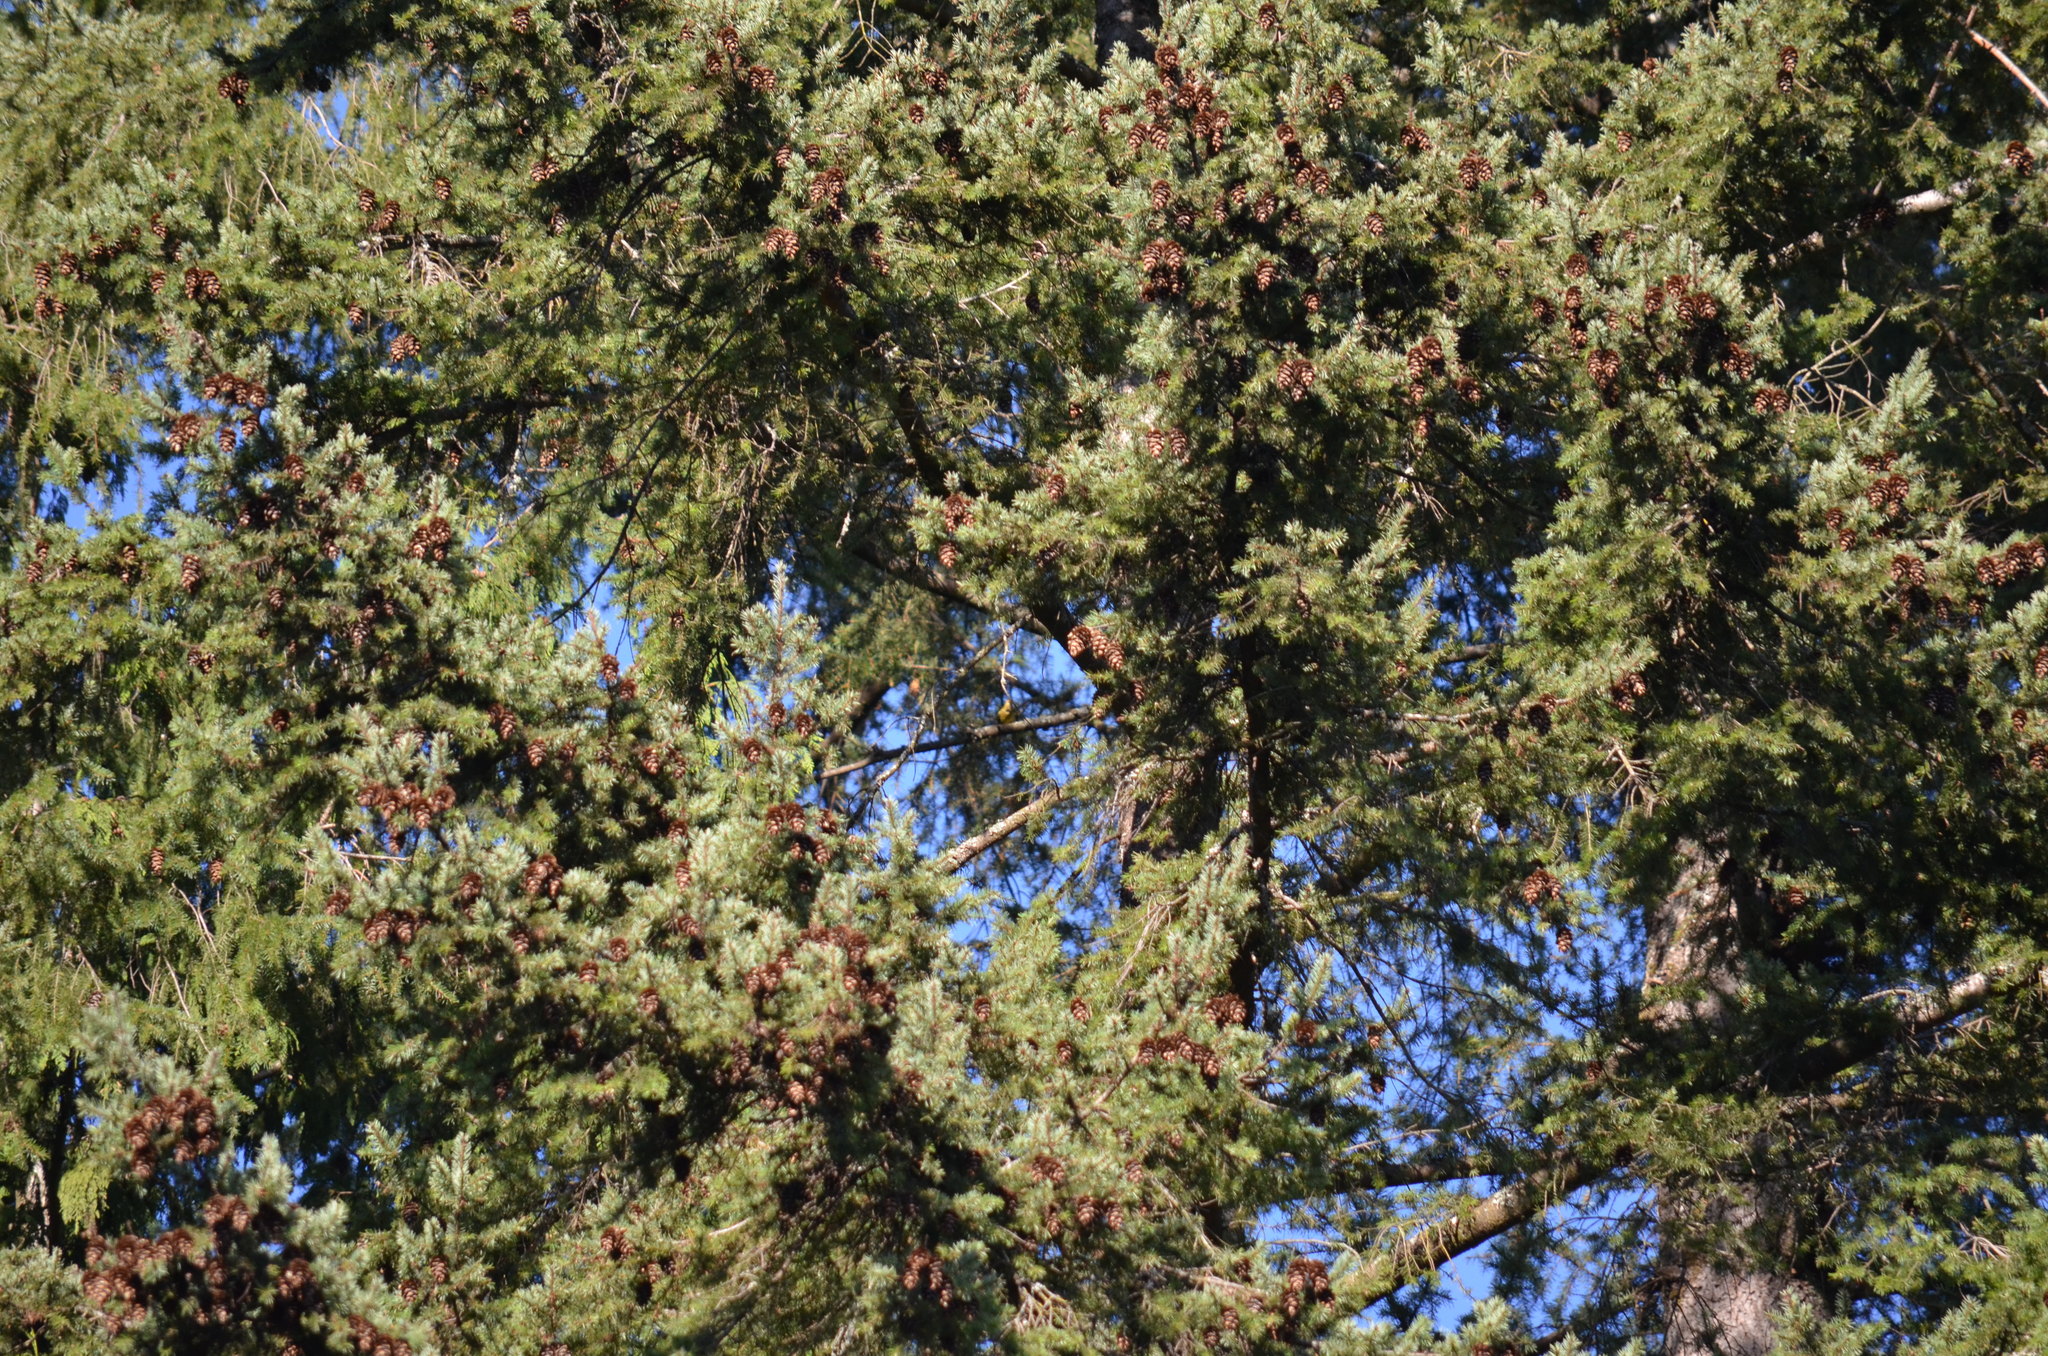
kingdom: Animalia
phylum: Chordata
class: Aves
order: Passeriformes
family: Cardinalidae
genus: Piranga
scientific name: Piranga ludoviciana
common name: Western tanager
